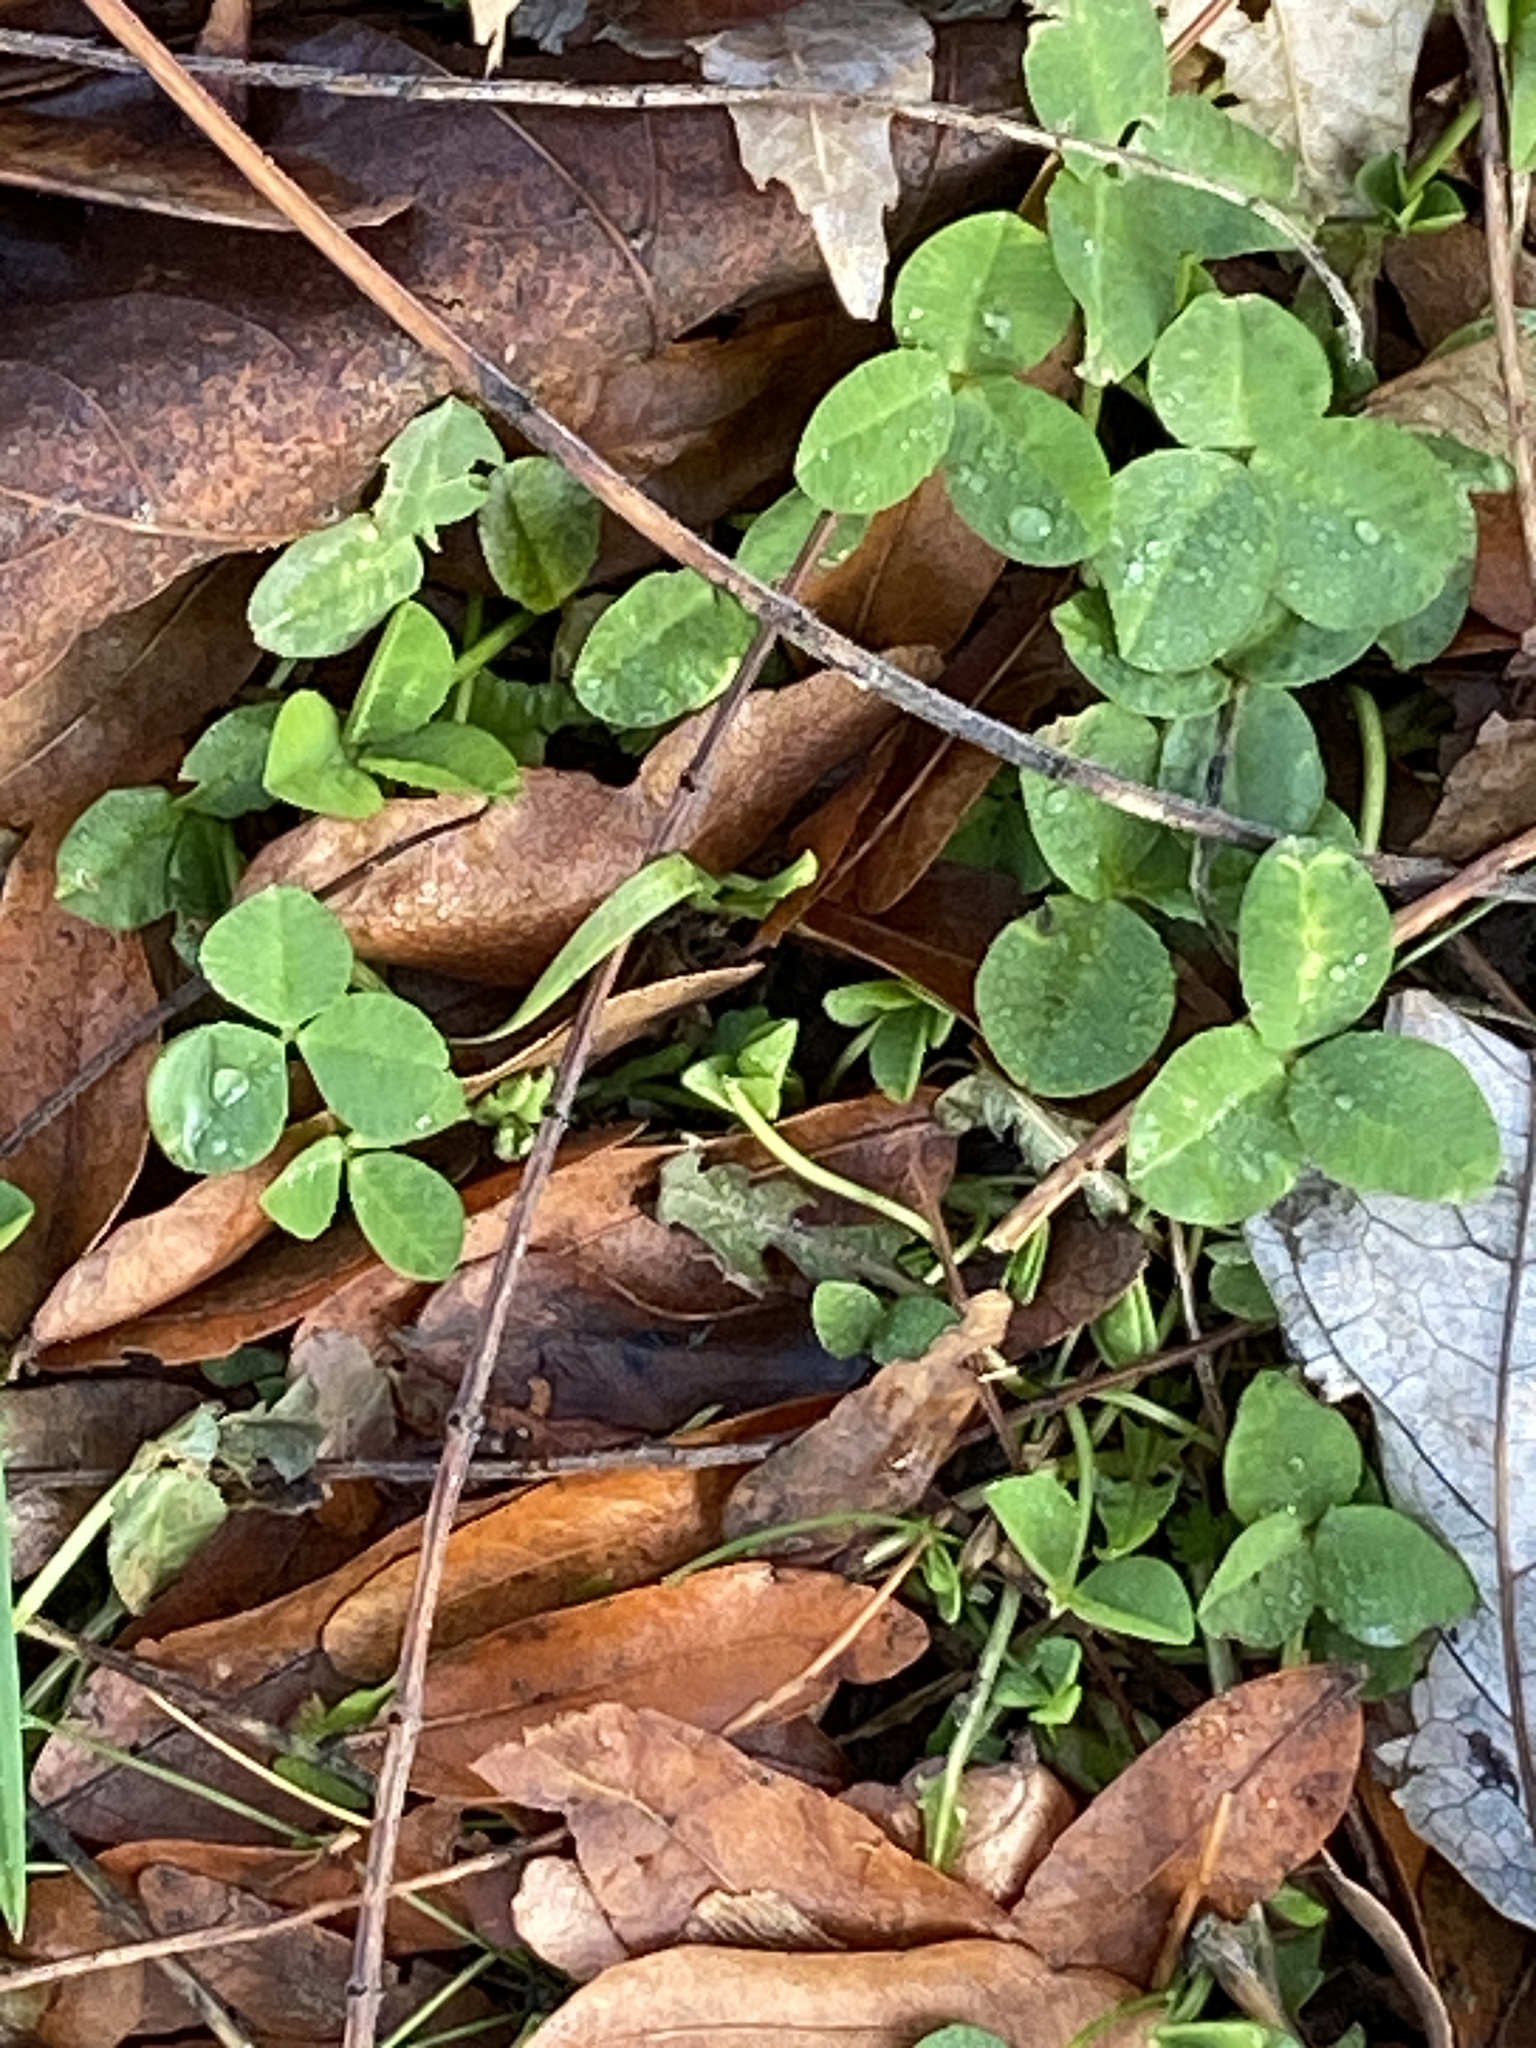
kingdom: Plantae
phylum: Tracheophyta
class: Magnoliopsida
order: Fabales
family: Fabaceae
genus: Trifolium
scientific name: Trifolium repens
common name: White clover
